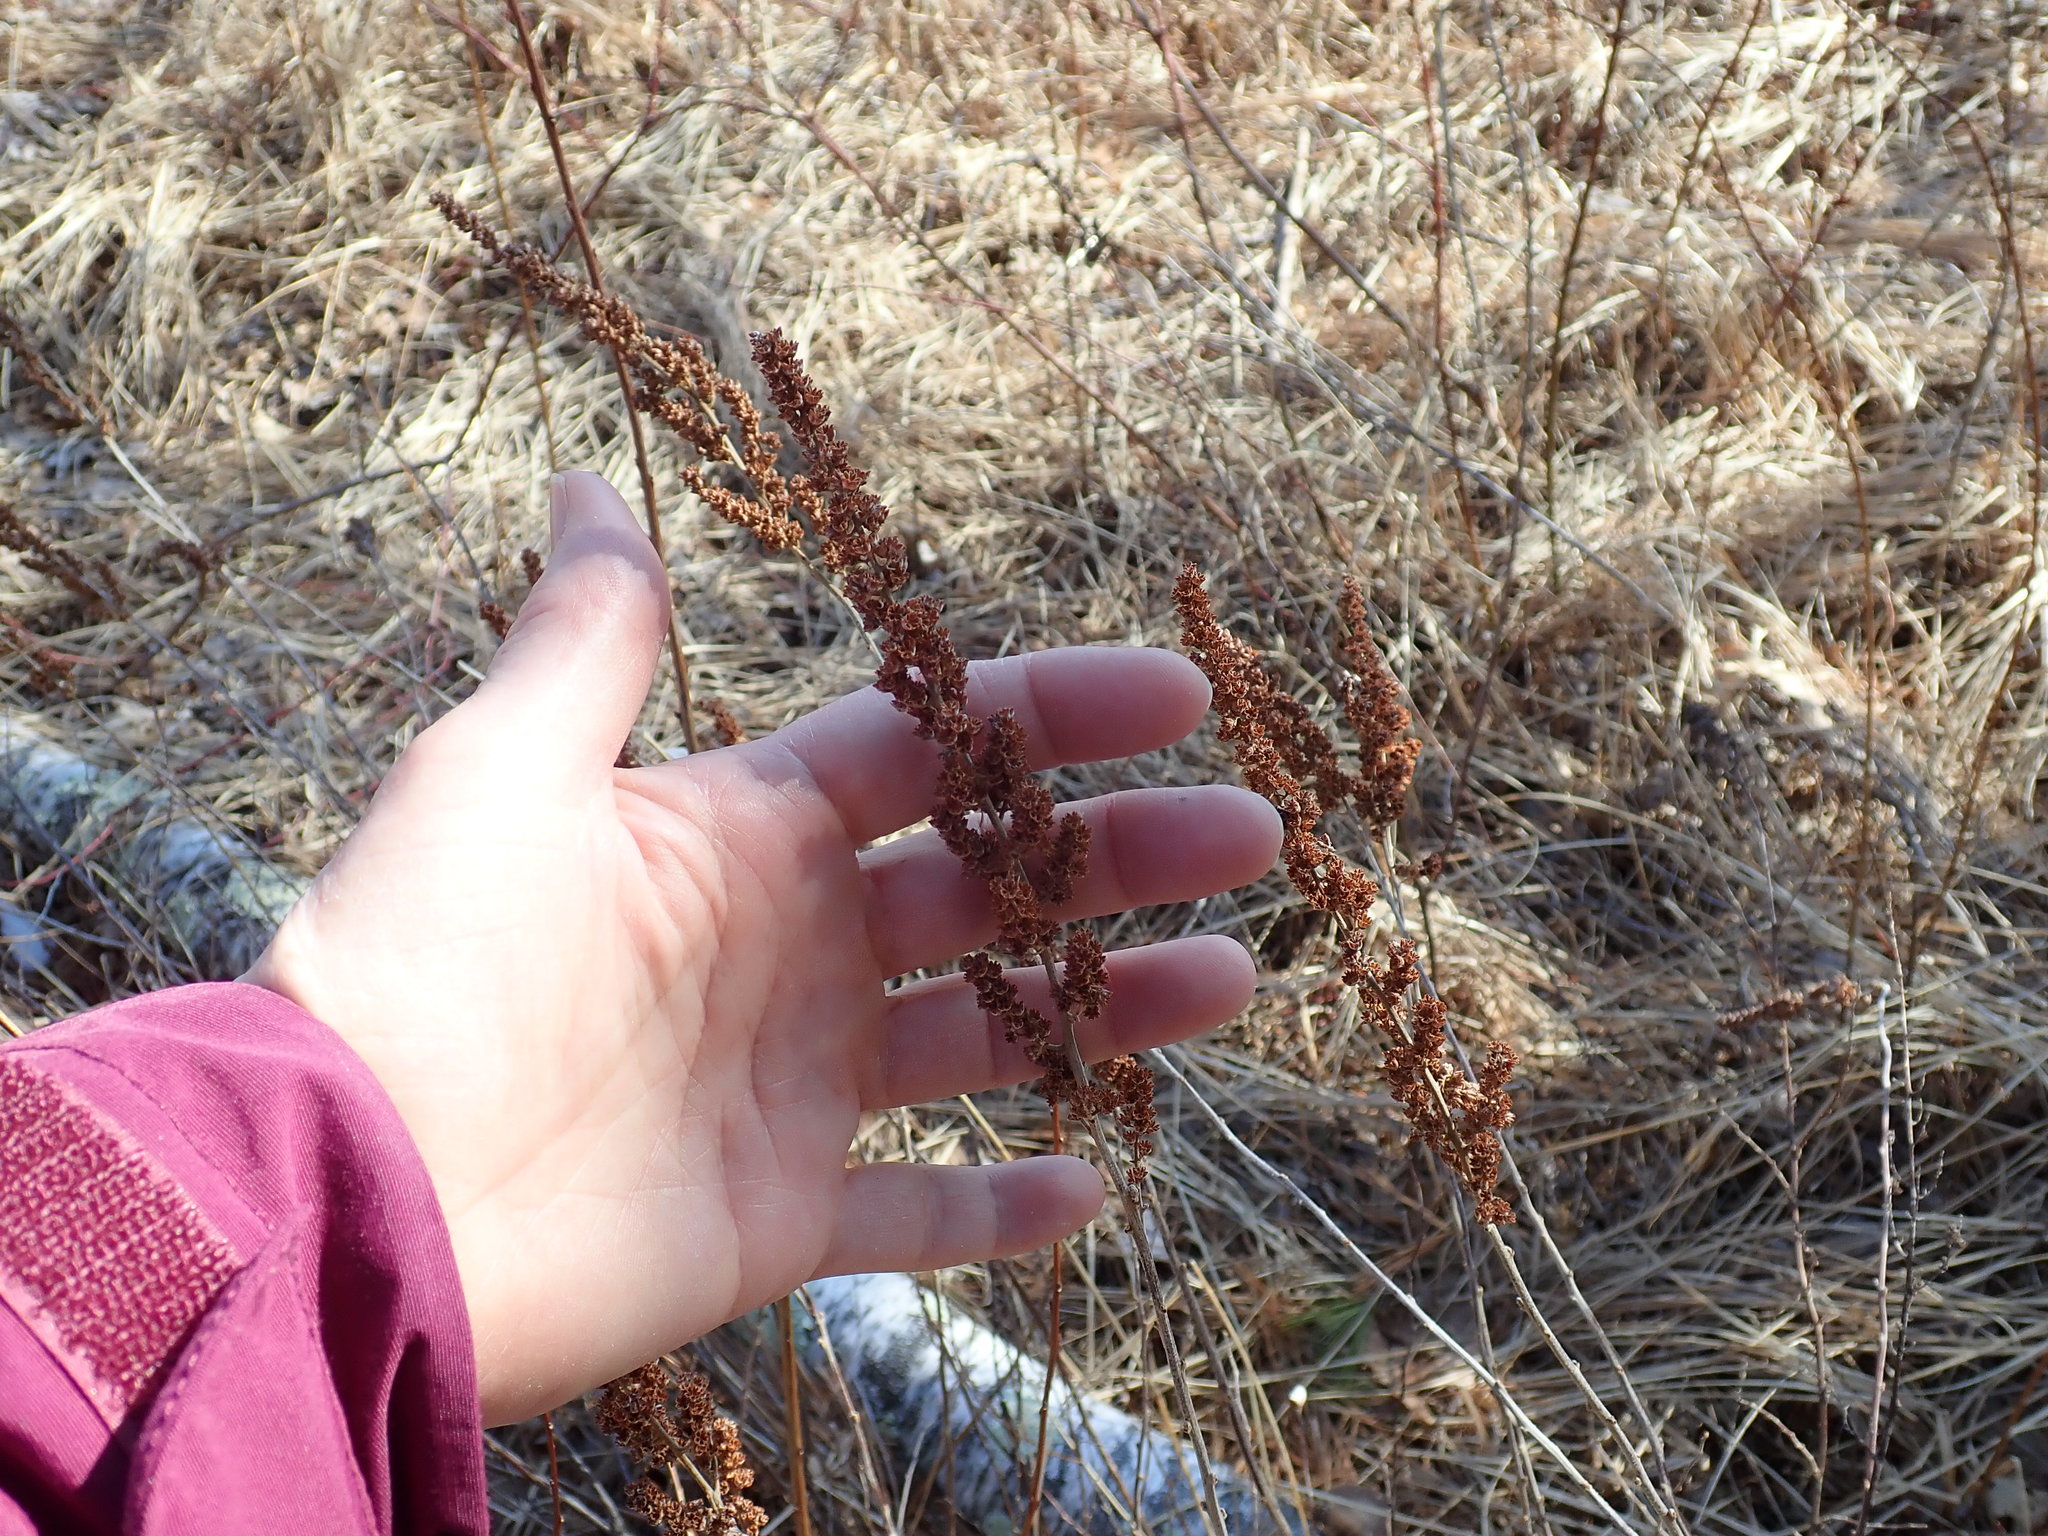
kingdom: Plantae
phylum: Tracheophyta
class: Magnoliopsida
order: Rosales
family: Rosaceae
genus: Spiraea
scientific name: Spiraea tomentosa
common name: Hardhack
